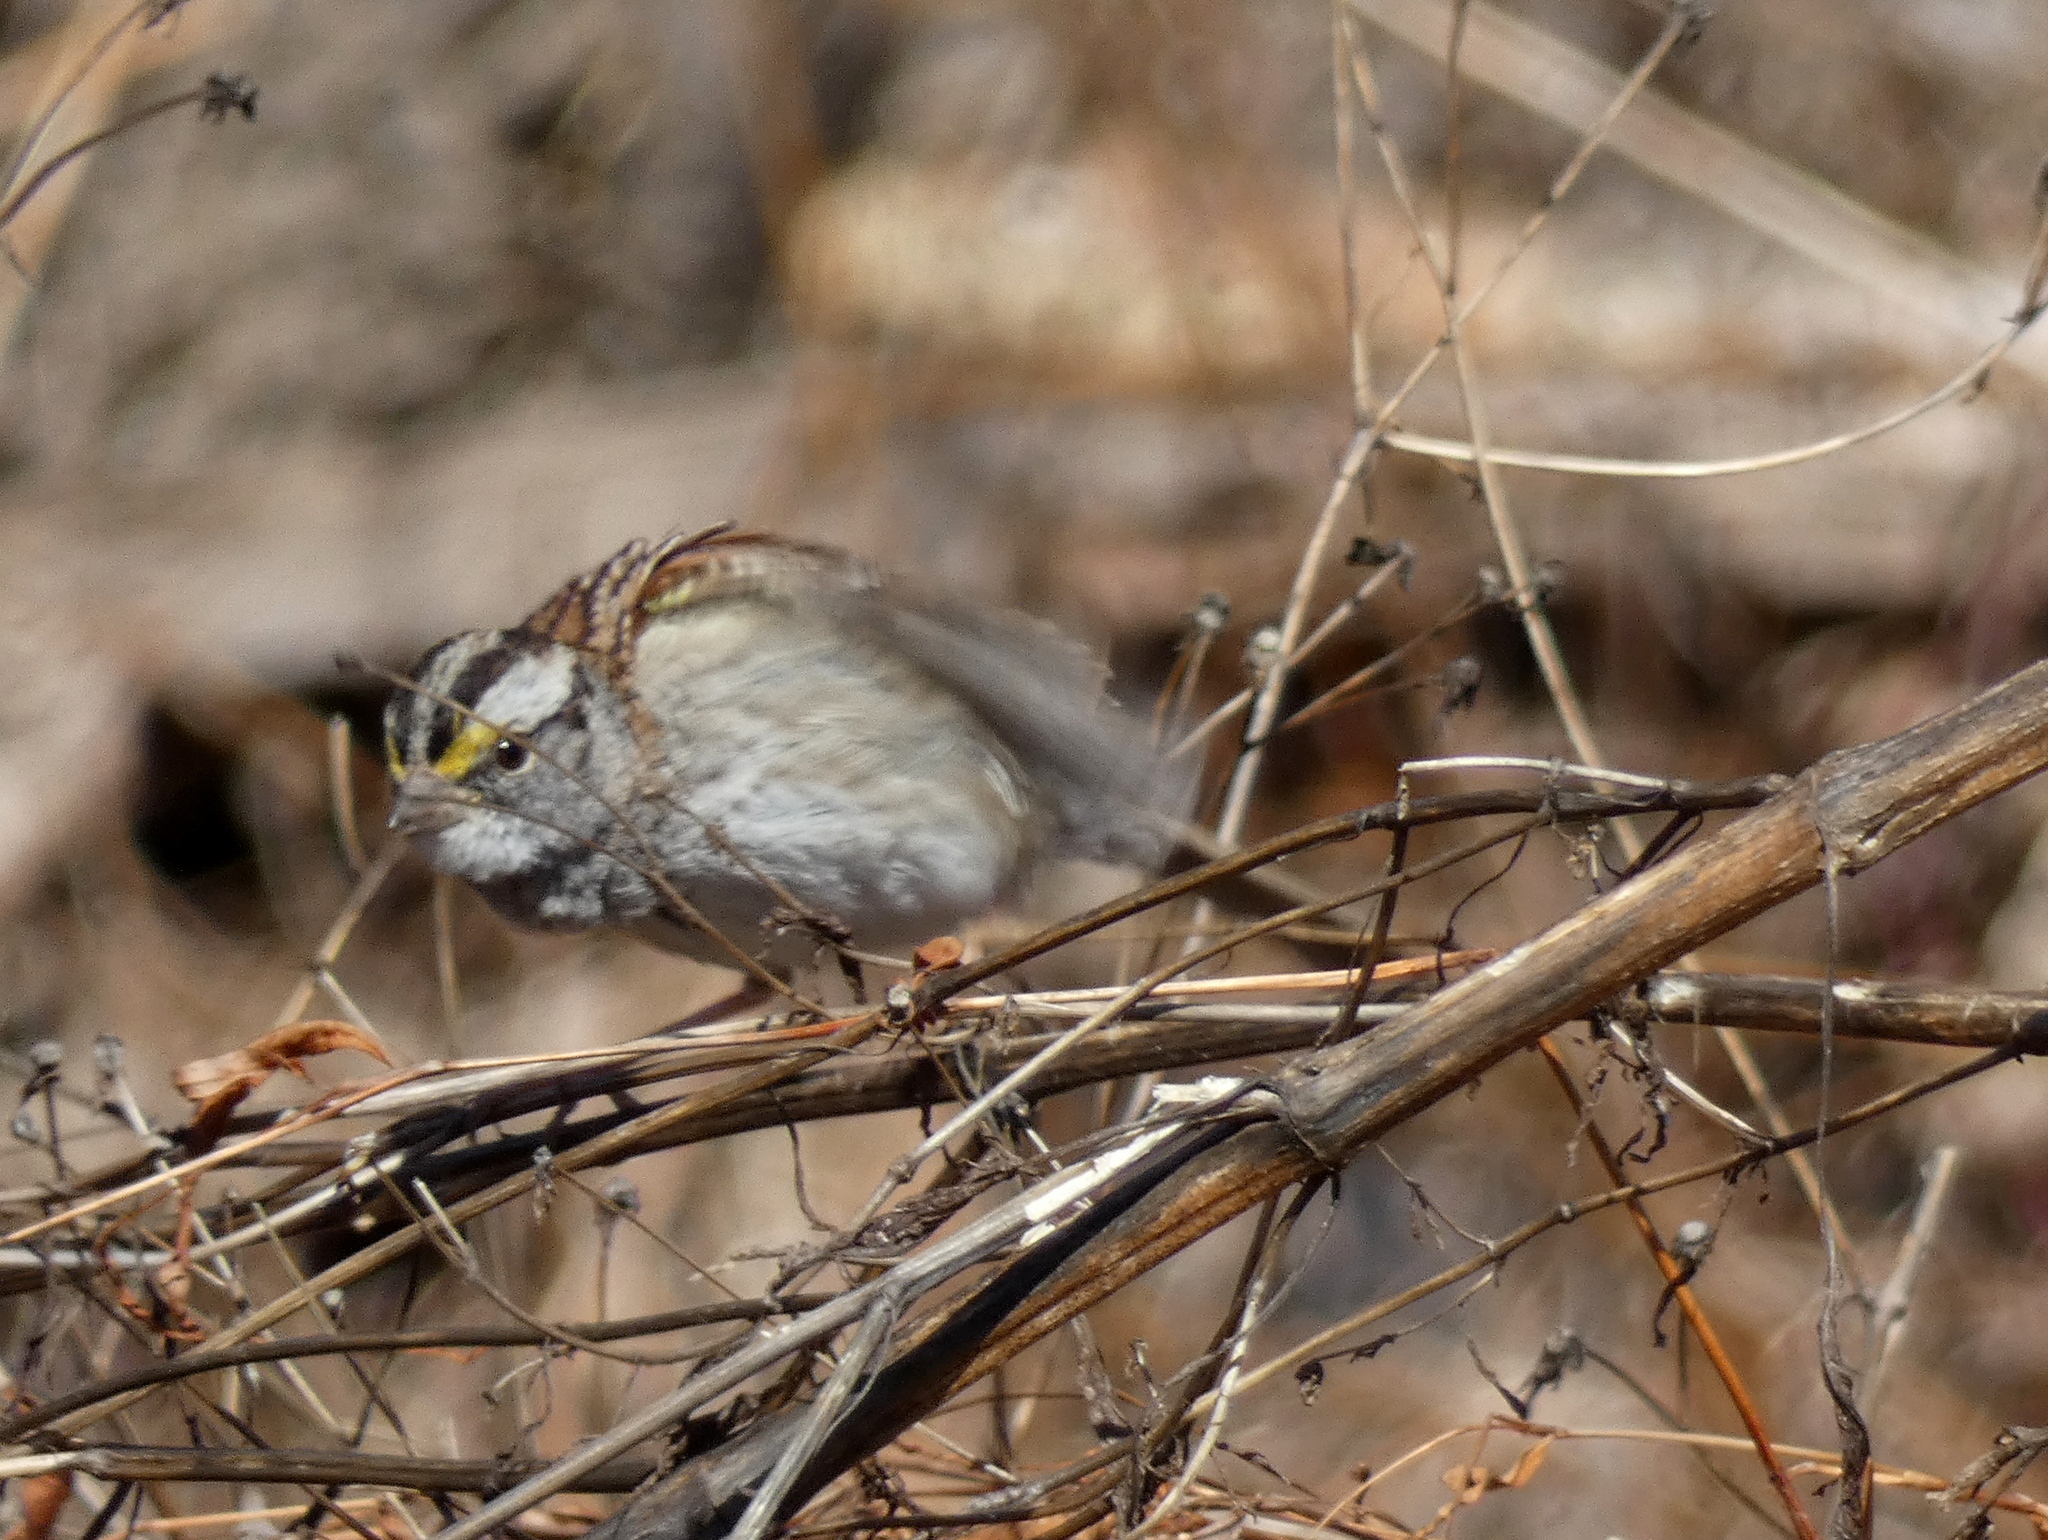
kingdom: Animalia
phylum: Chordata
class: Aves
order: Passeriformes
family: Passerellidae
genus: Zonotrichia
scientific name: Zonotrichia albicollis
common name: White-throated sparrow
